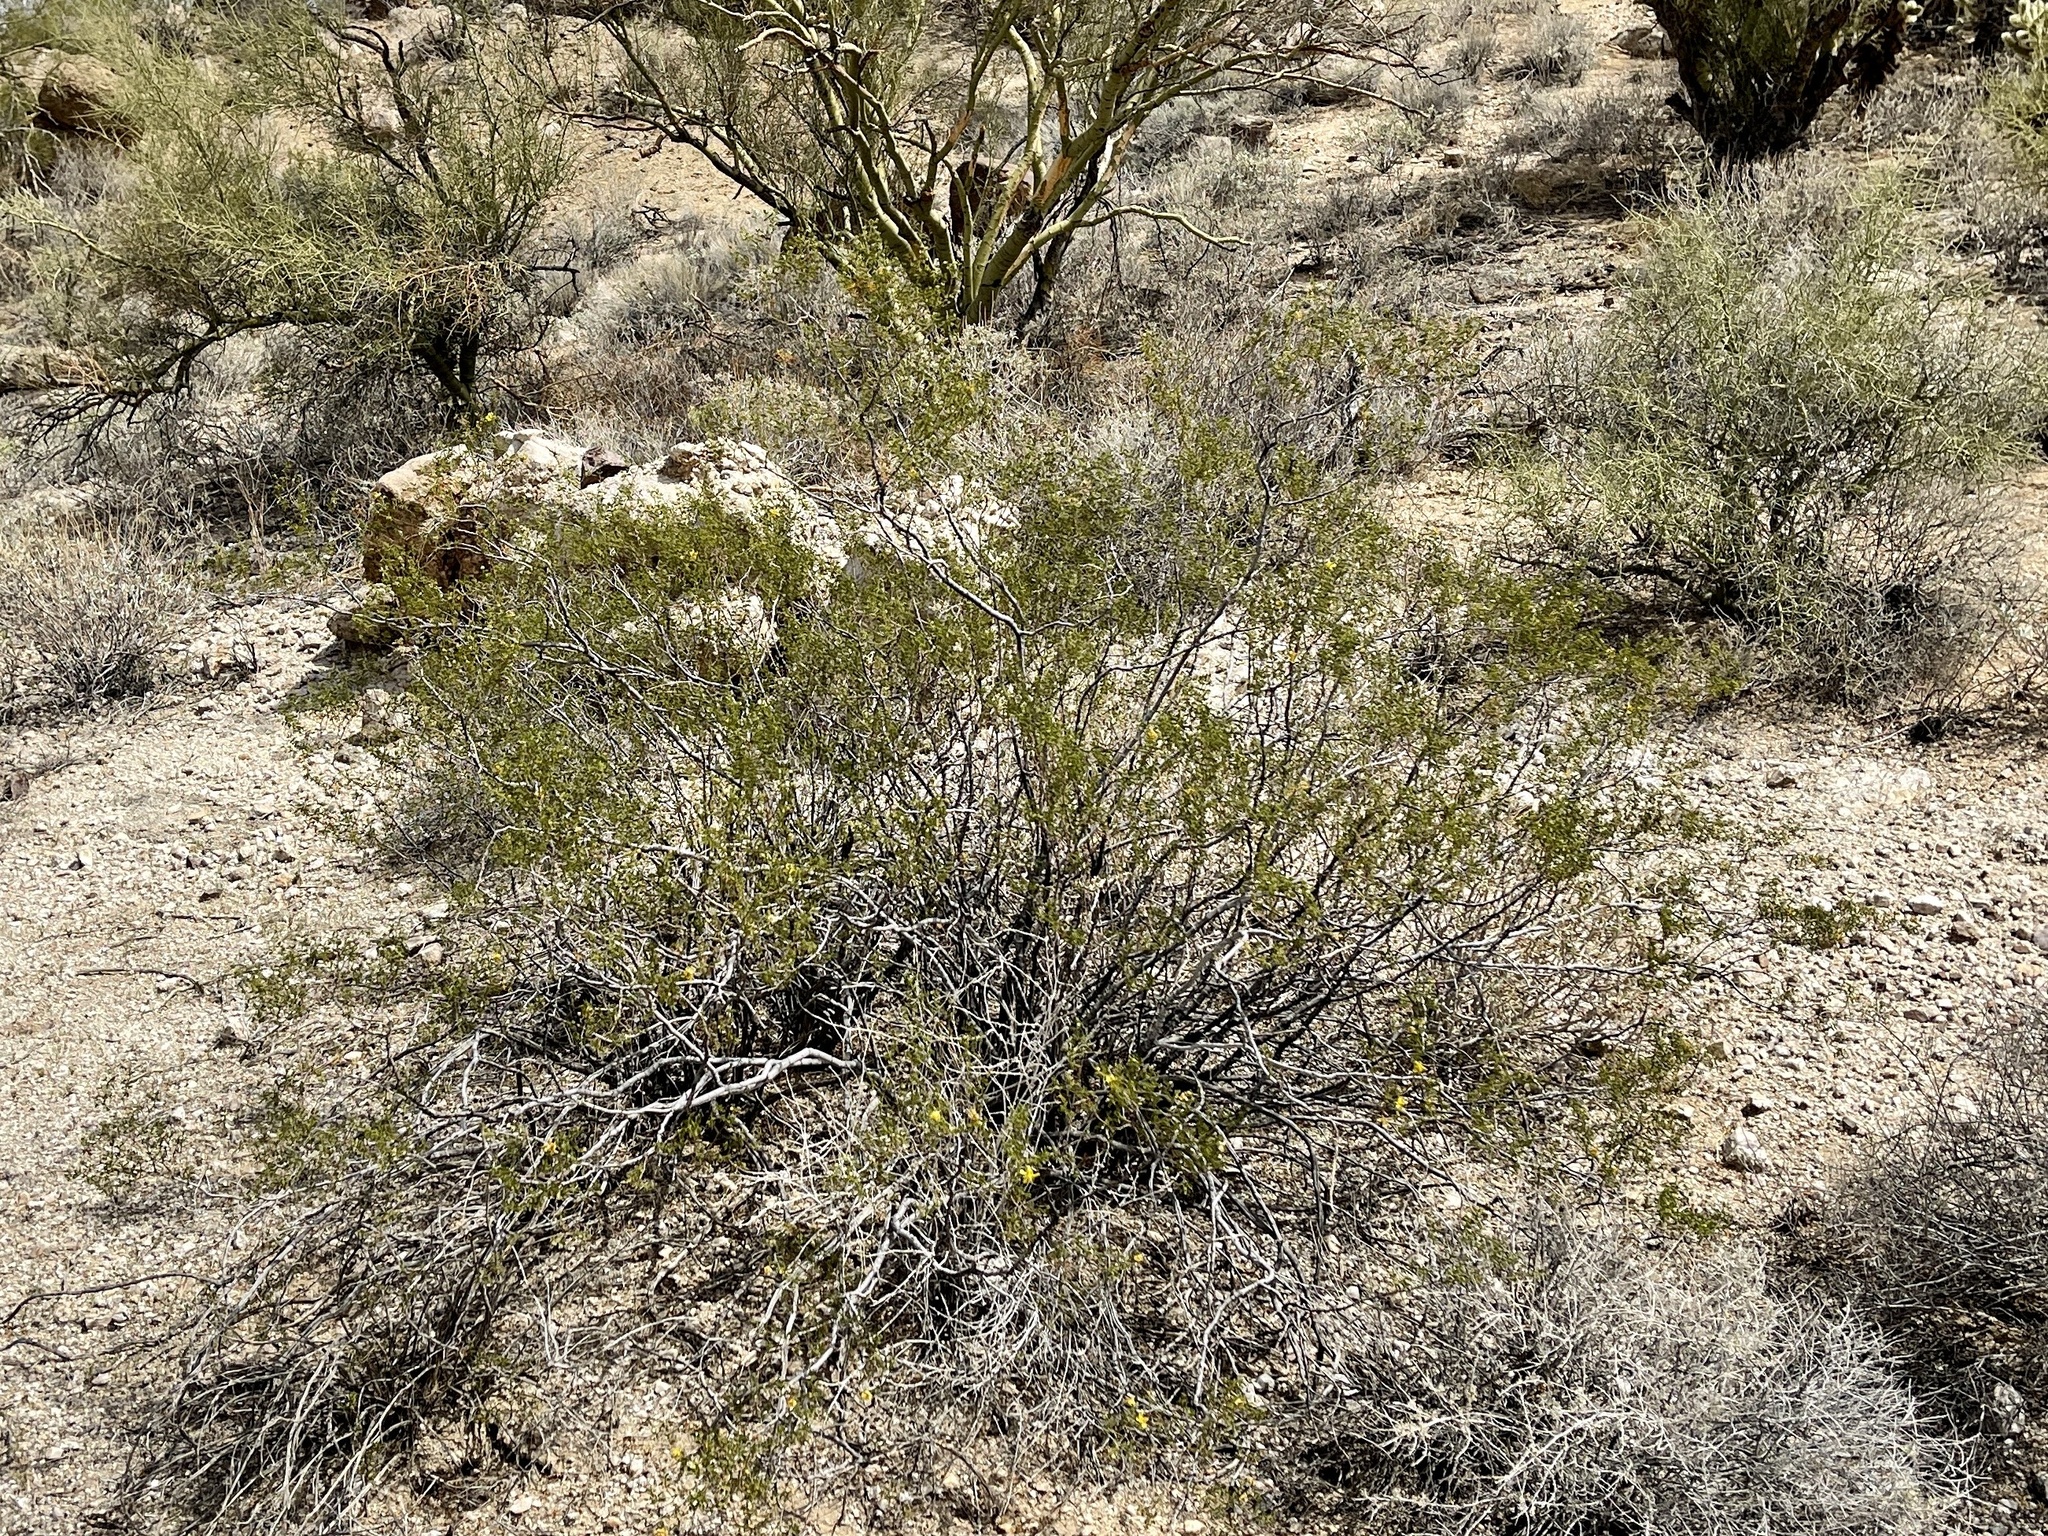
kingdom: Plantae
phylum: Tracheophyta
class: Magnoliopsida
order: Zygophyllales
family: Zygophyllaceae
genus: Larrea
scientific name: Larrea tridentata
